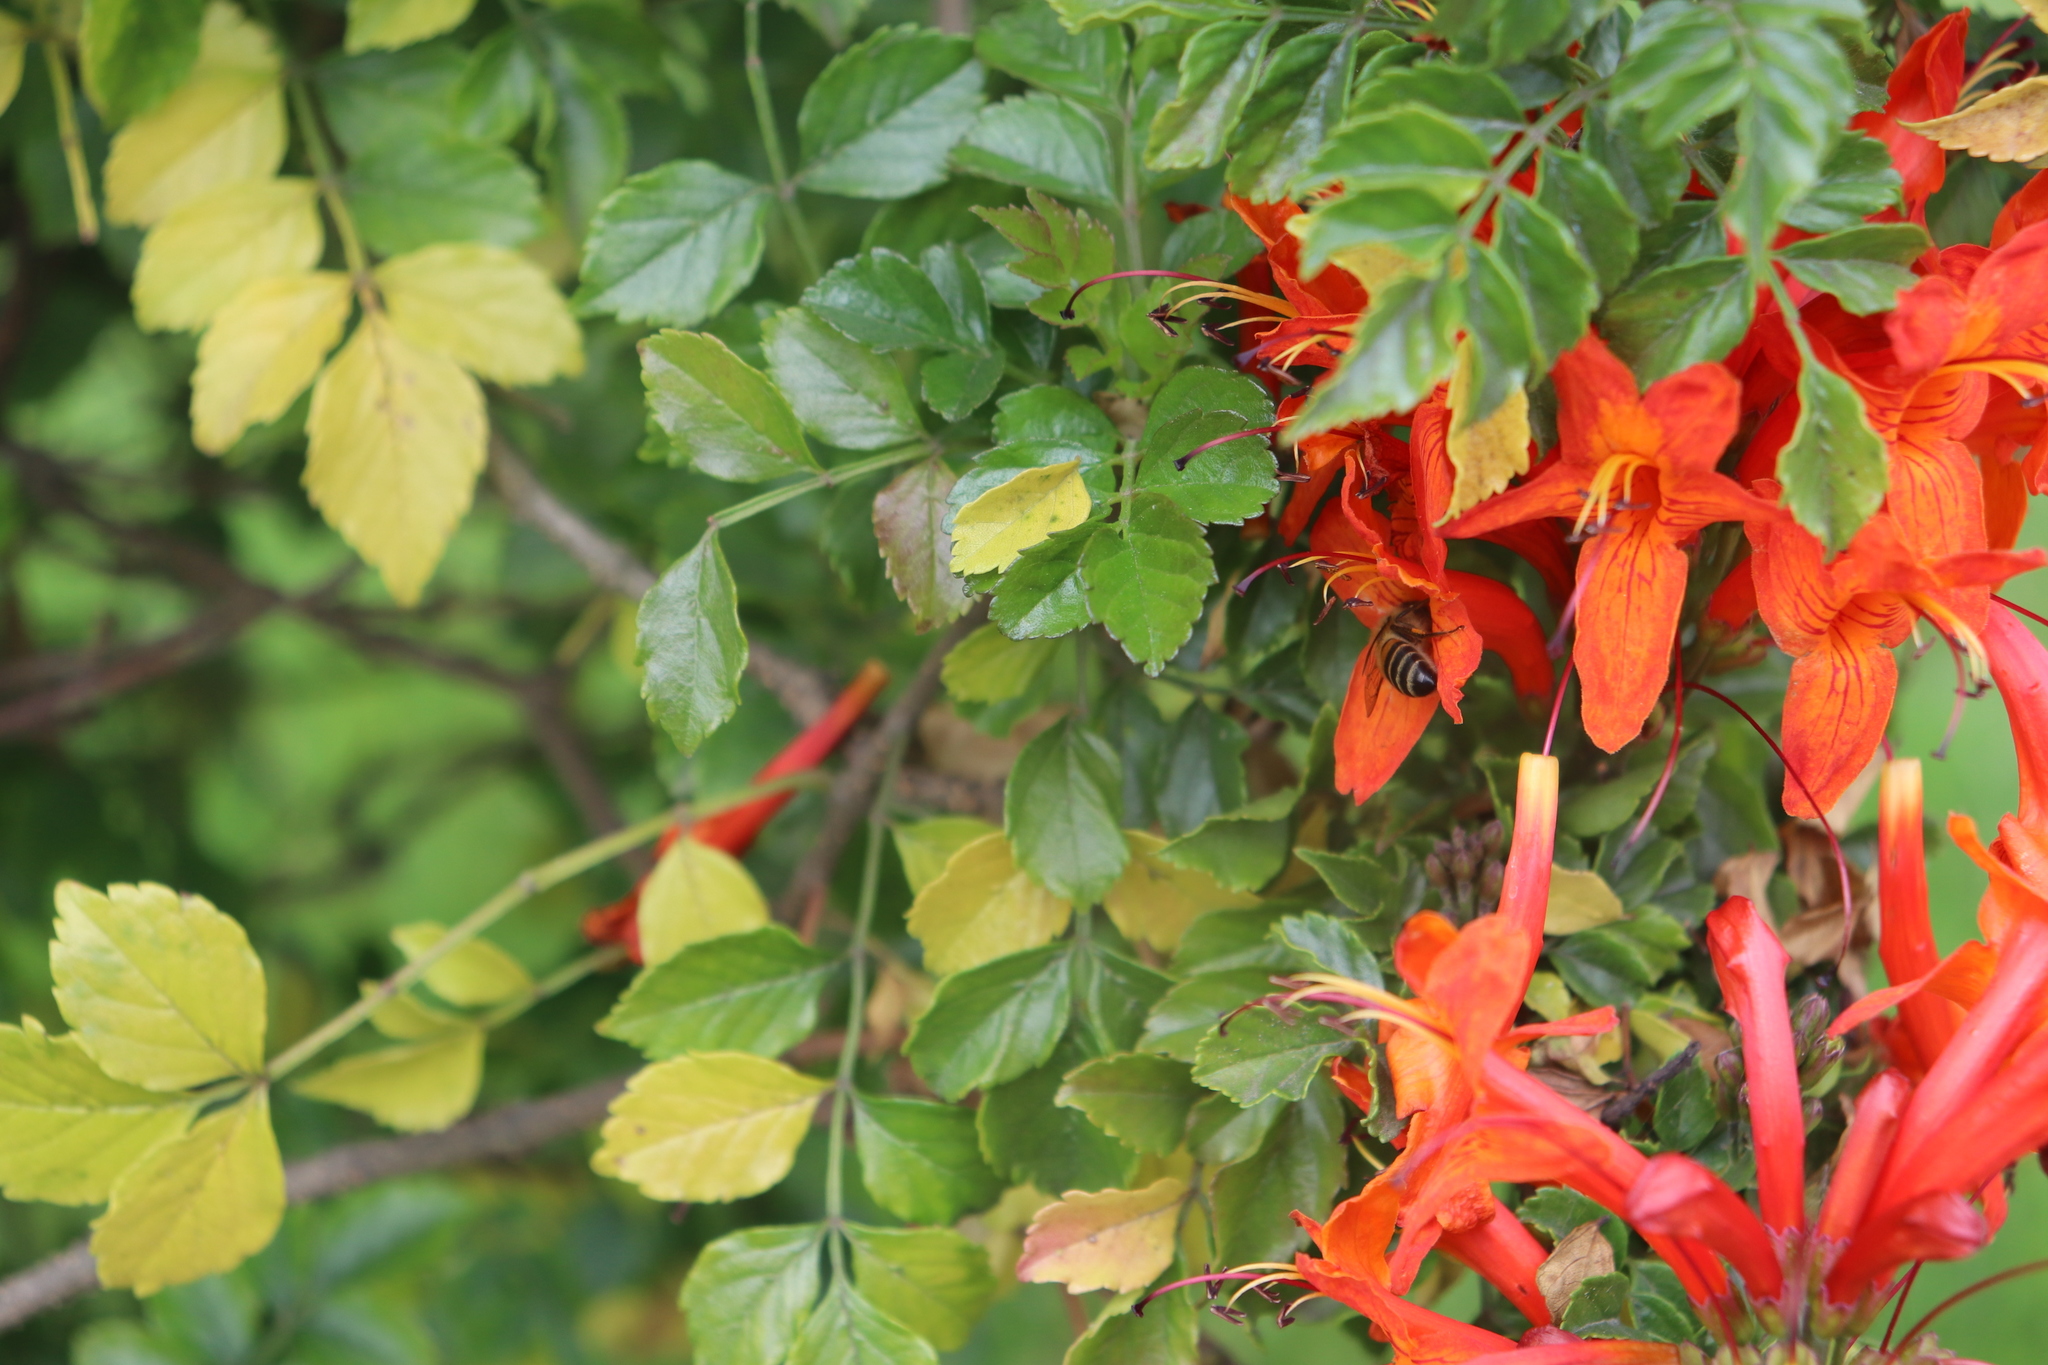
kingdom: Plantae
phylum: Tracheophyta
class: Magnoliopsida
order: Lamiales
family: Bignoniaceae
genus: Tecomaria
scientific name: Tecomaria capensis
